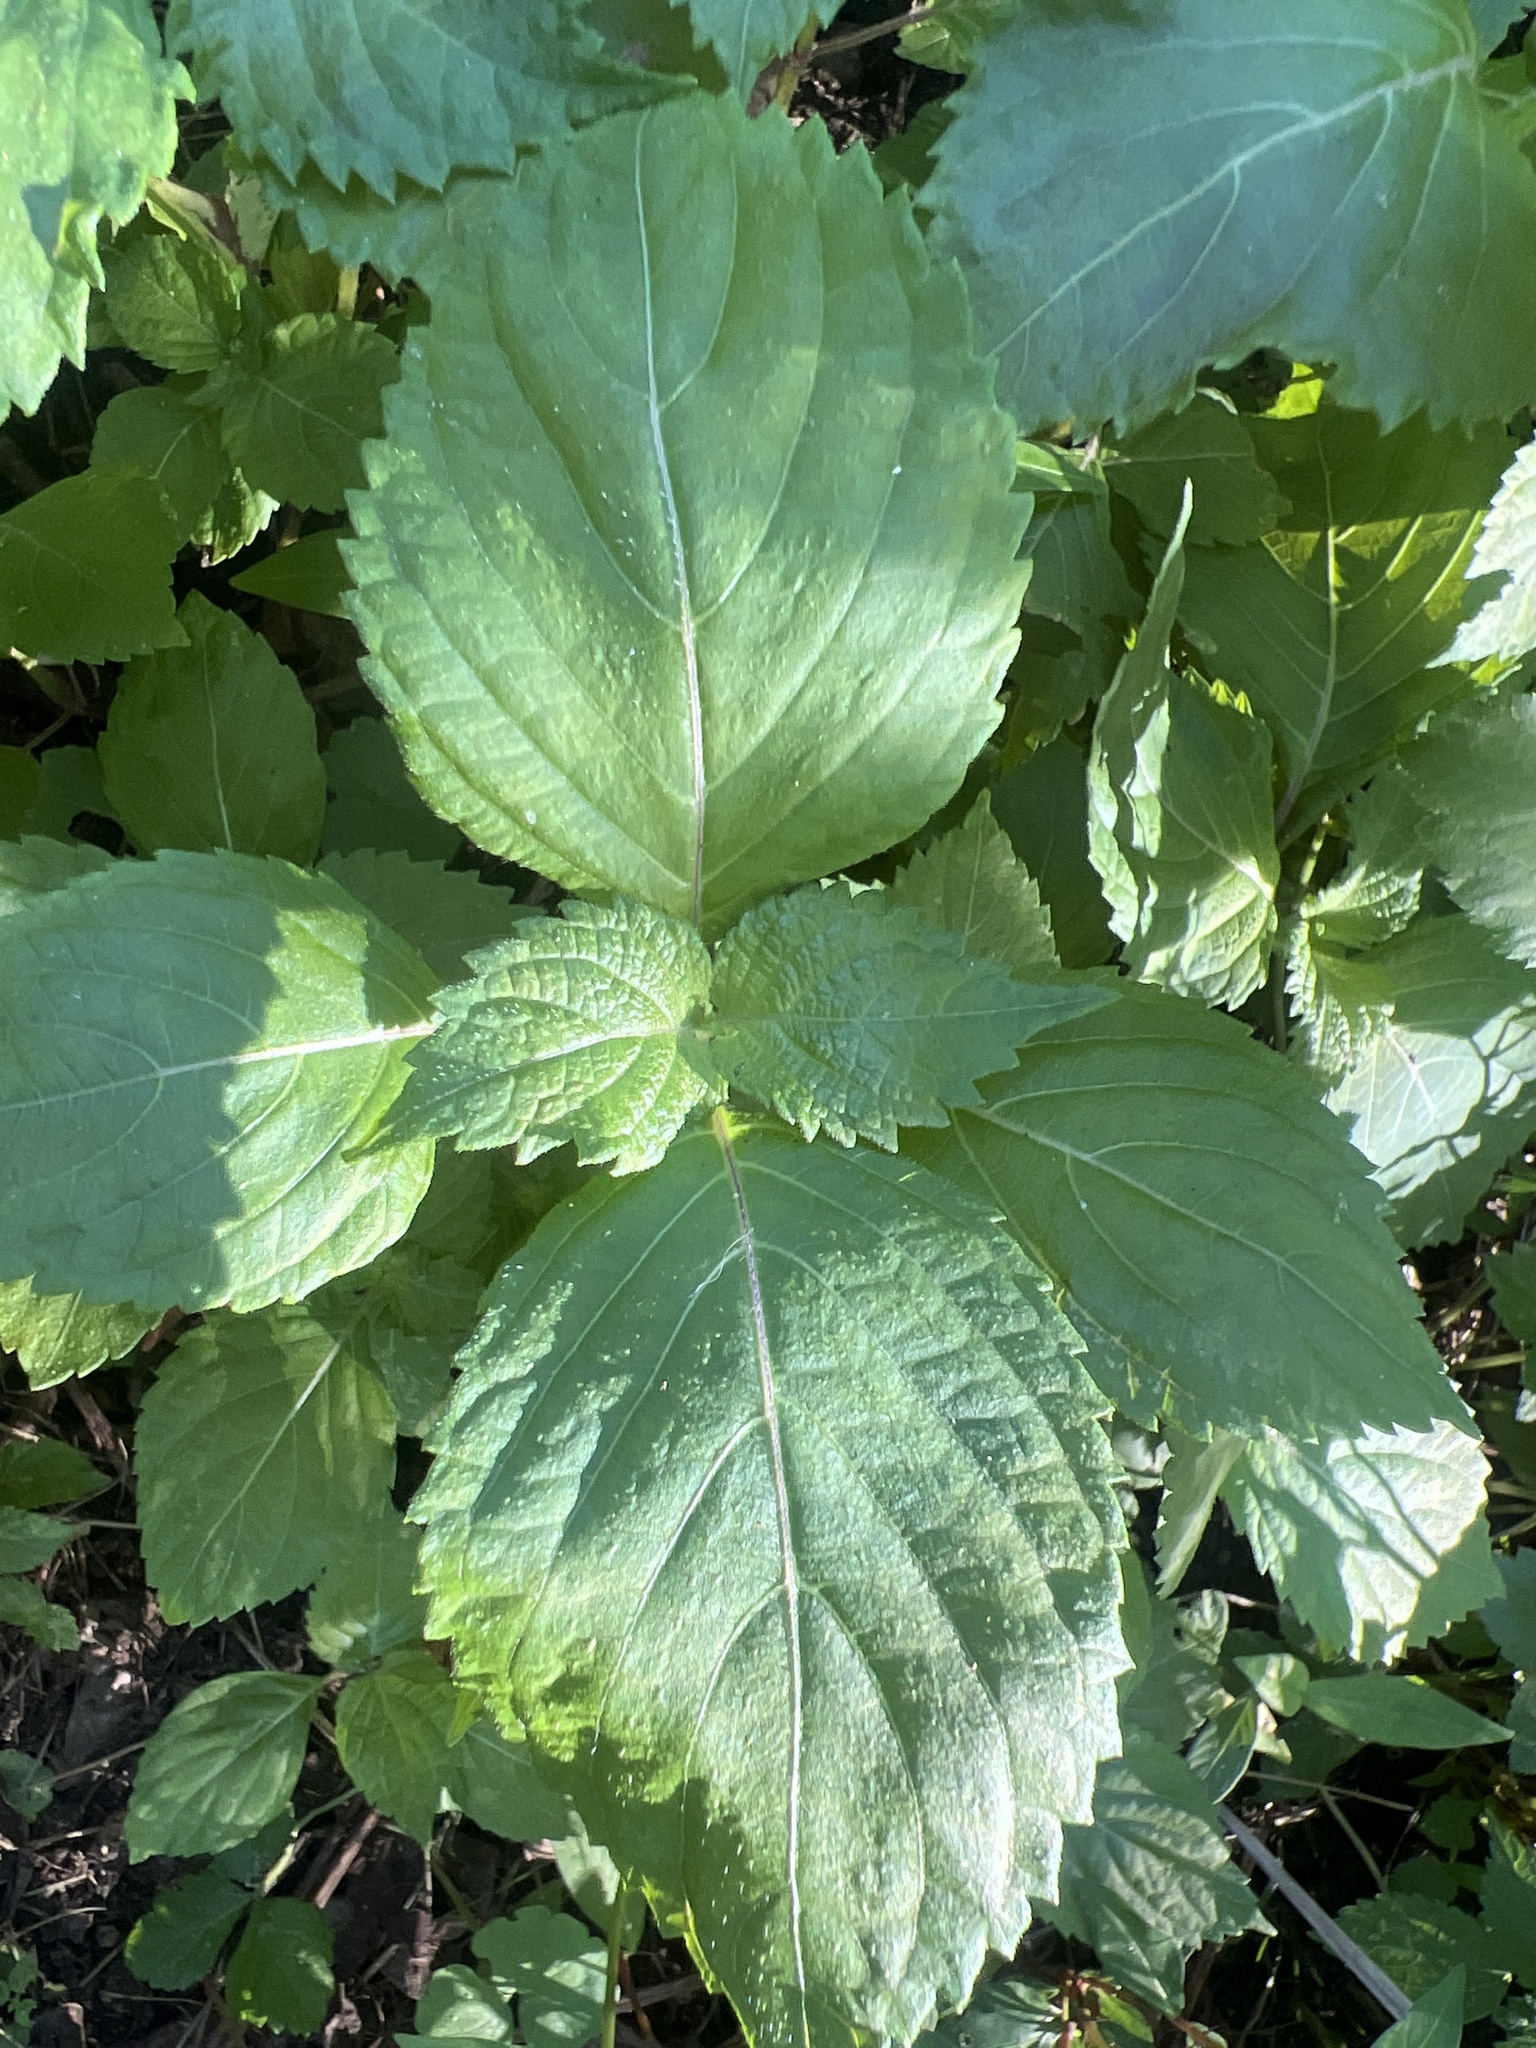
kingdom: Plantae
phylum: Tracheophyta
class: Magnoliopsida
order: Lamiales
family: Lamiaceae
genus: Perilla
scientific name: Perilla frutescens
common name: Perilla
